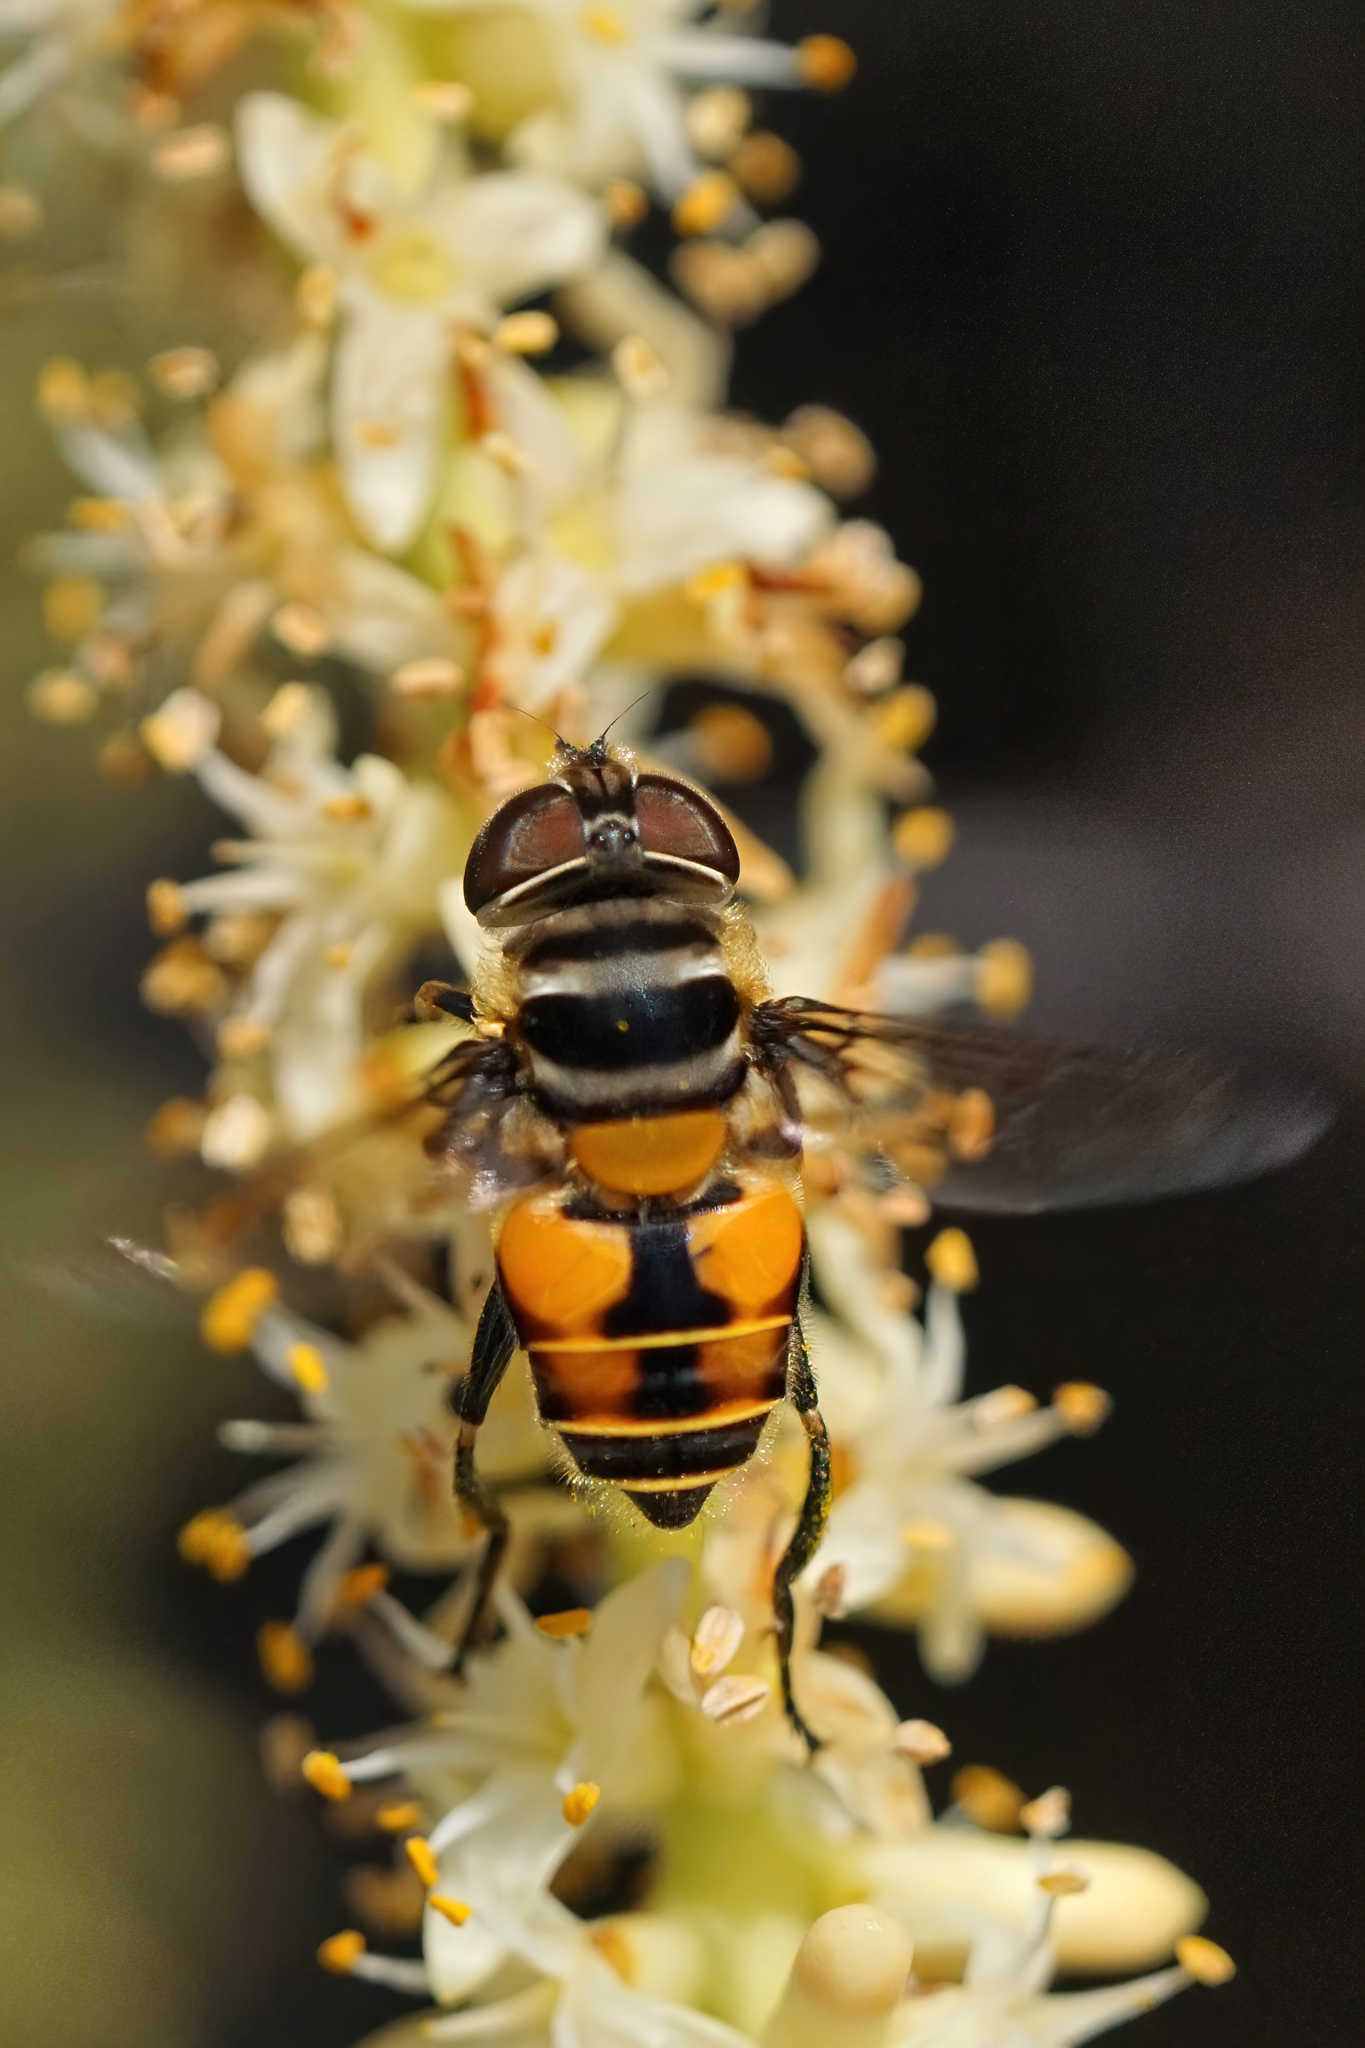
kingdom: Animalia
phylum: Arthropoda
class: Insecta
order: Diptera
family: Syrphidae
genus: Palpada
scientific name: Palpada agrorum
